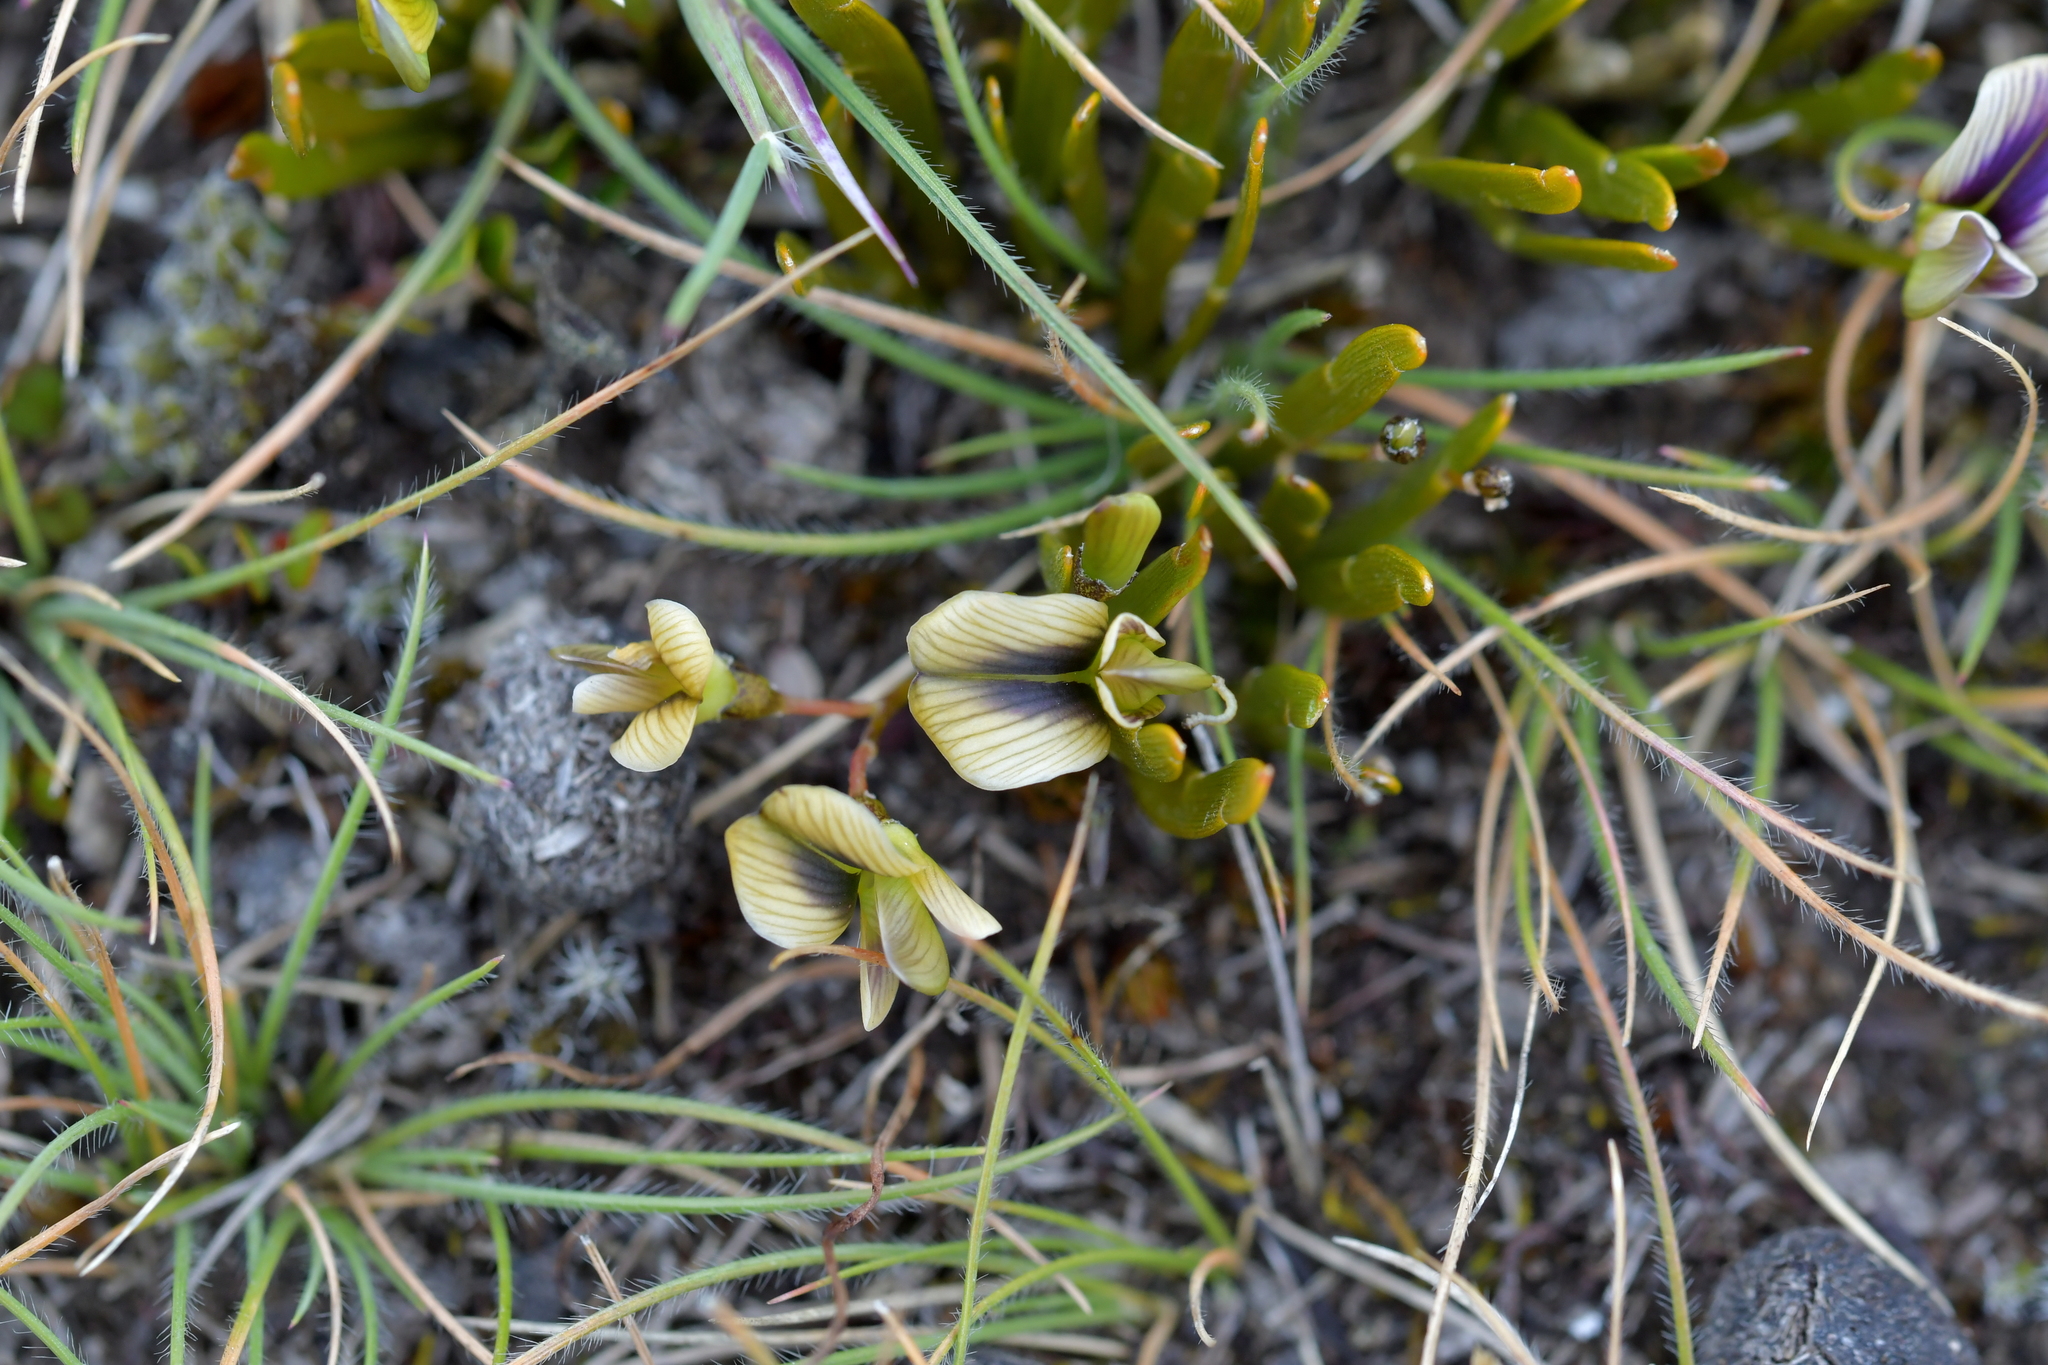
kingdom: Plantae
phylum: Tracheophyta
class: Magnoliopsida
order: Fabales
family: Fabaceae
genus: Carmichaelia
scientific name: Carmichaelia corrugata
